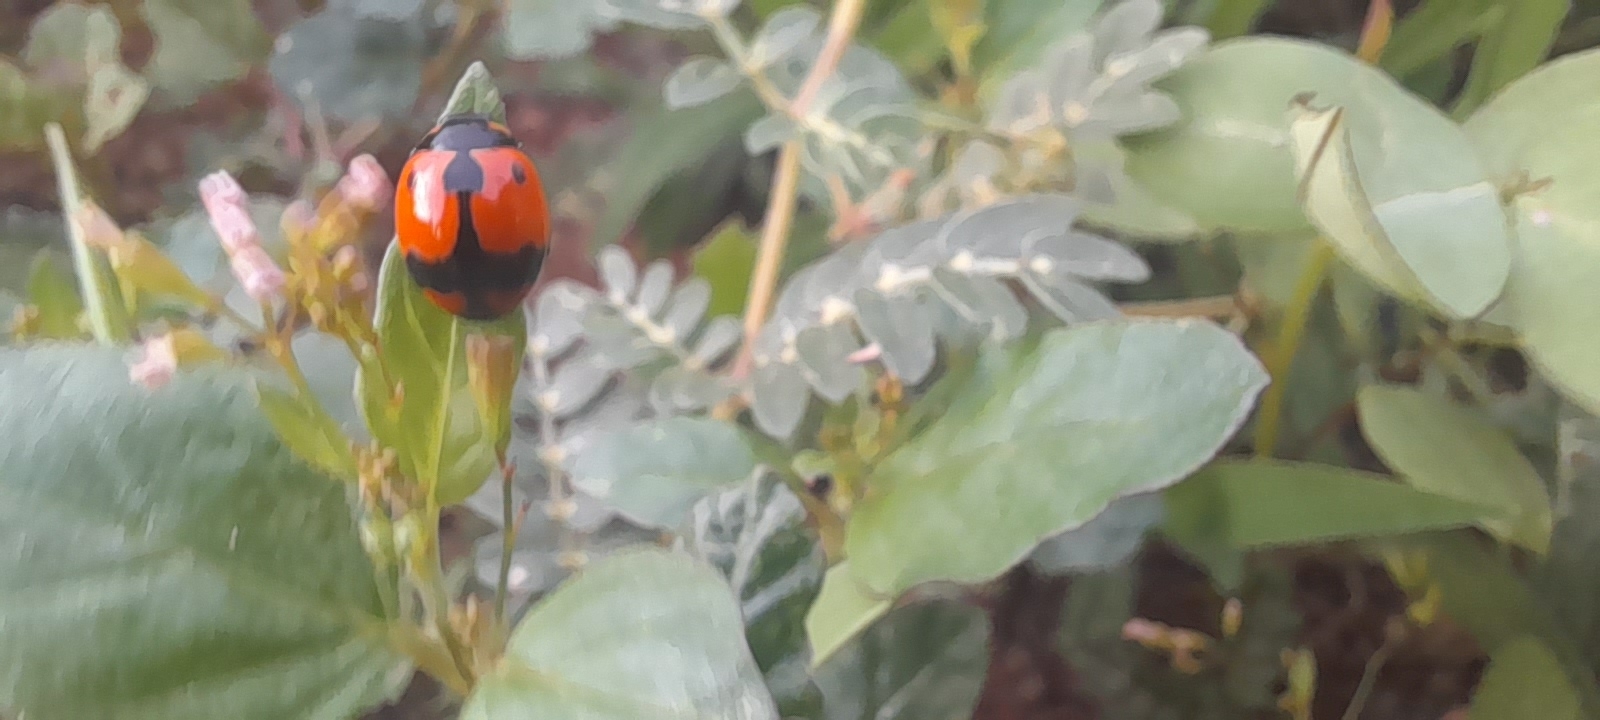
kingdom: Animalia
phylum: Arthropoda
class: Insecta
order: Coleoptera
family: Coccinellidae
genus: Coccinella
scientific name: Coccinella transversalis
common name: Transverse lady beetle
